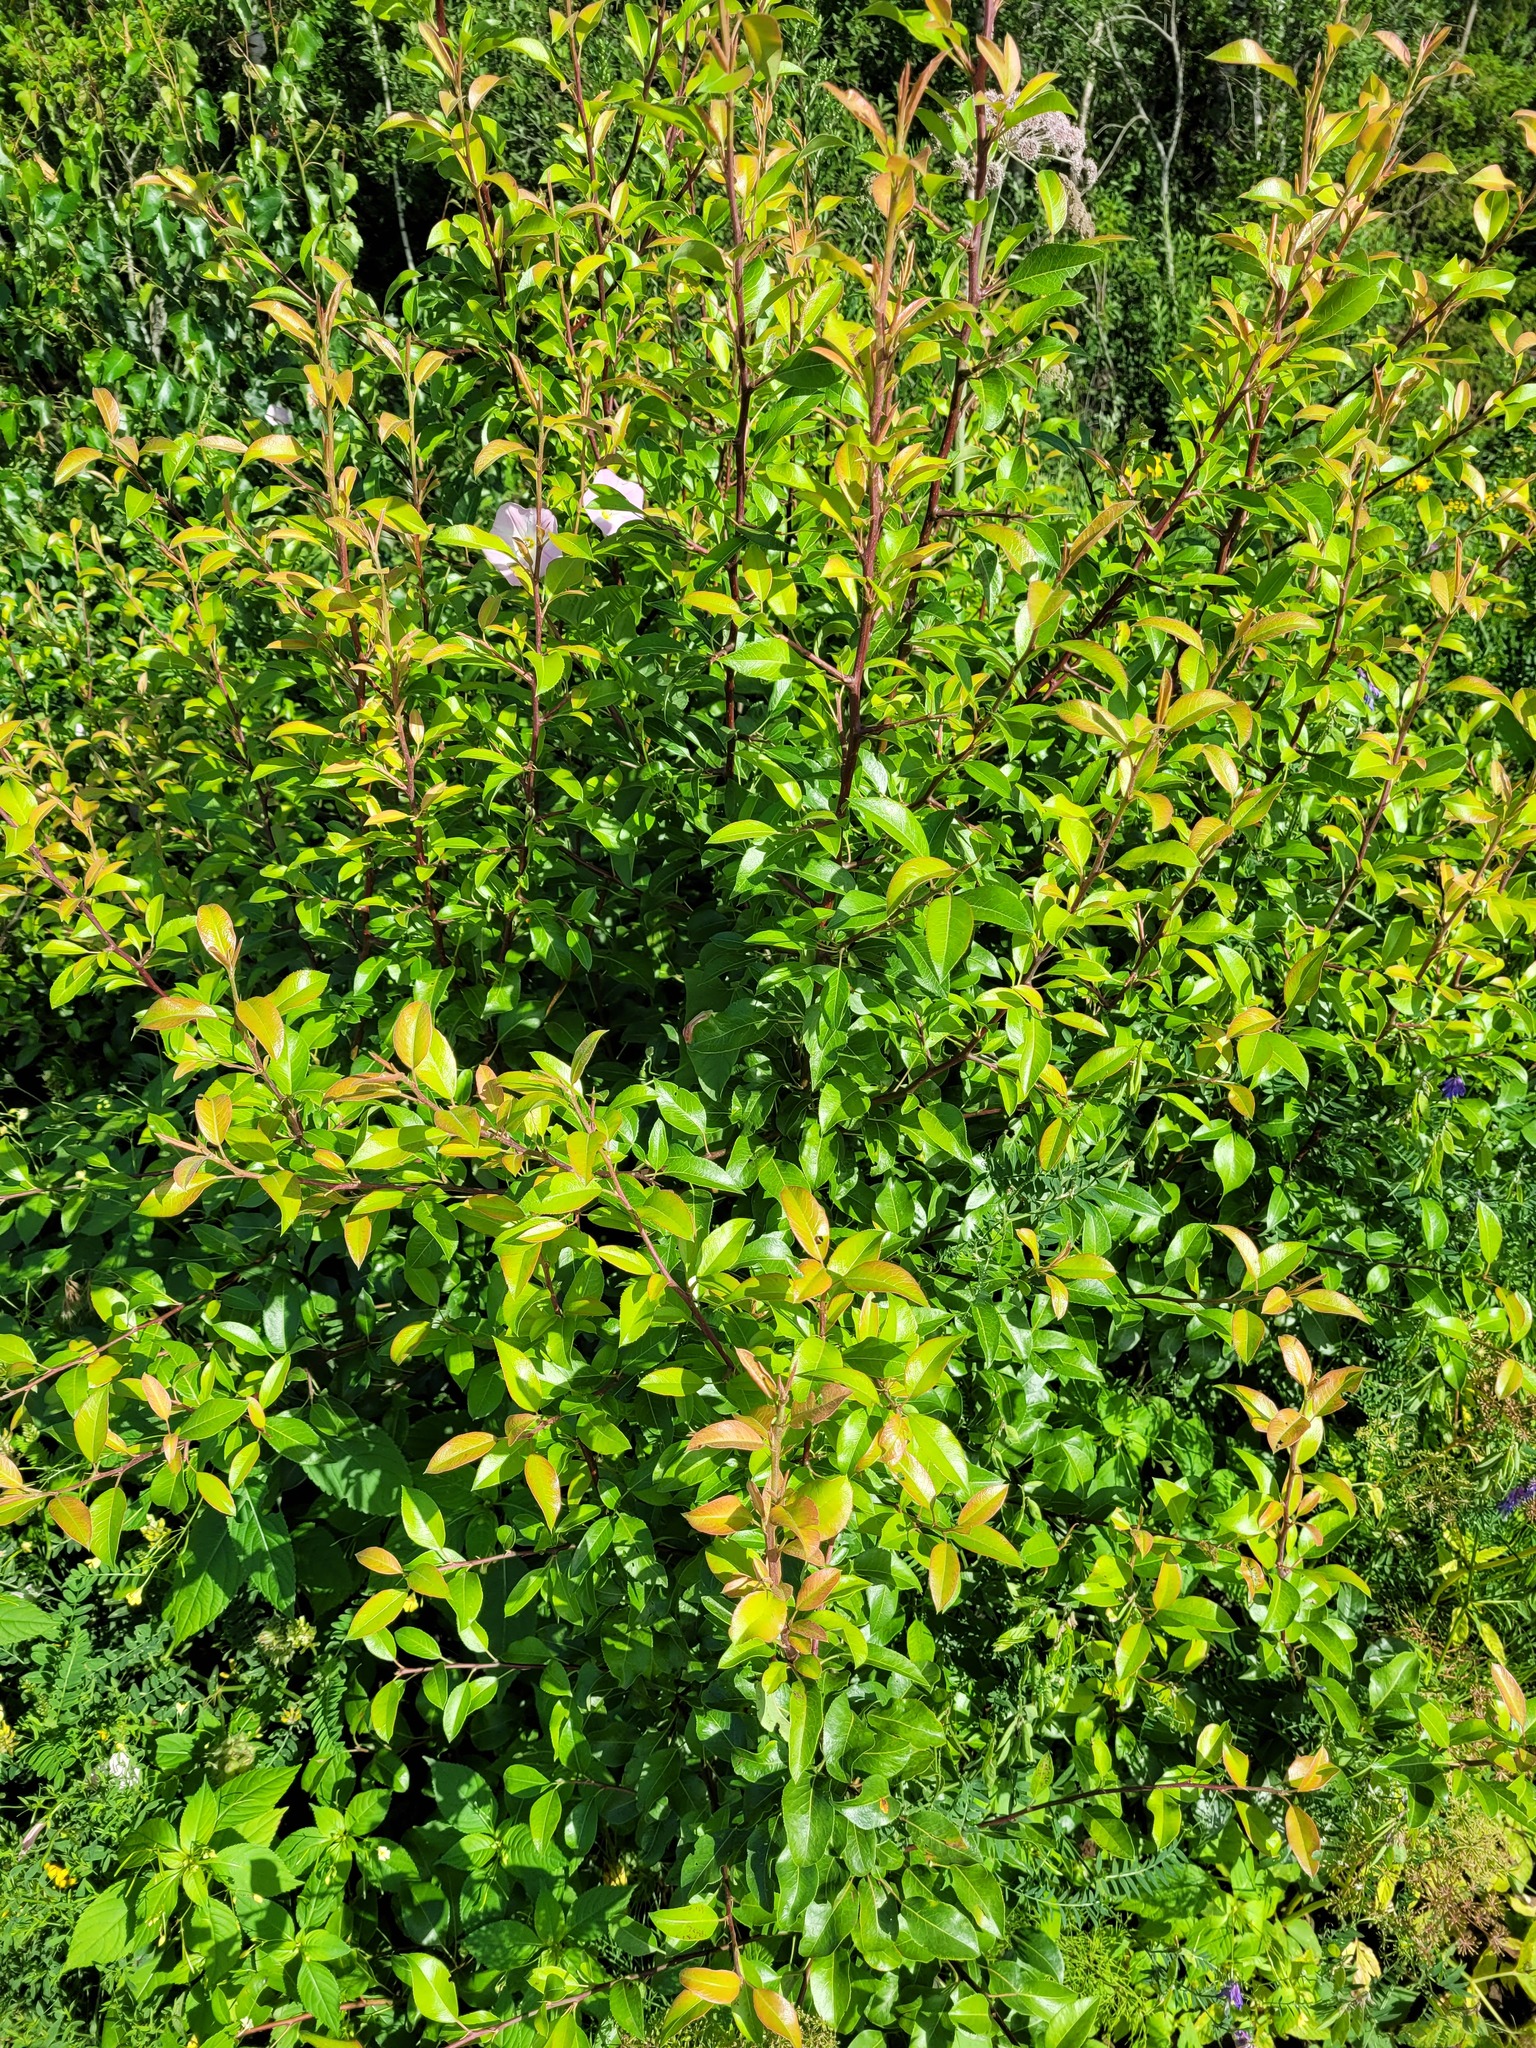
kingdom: Plantae
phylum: Tracheophyta
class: Magnoliopsida
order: Rosales
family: Rosaceae
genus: Pyrus
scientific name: Pyrus communis
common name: Pear
